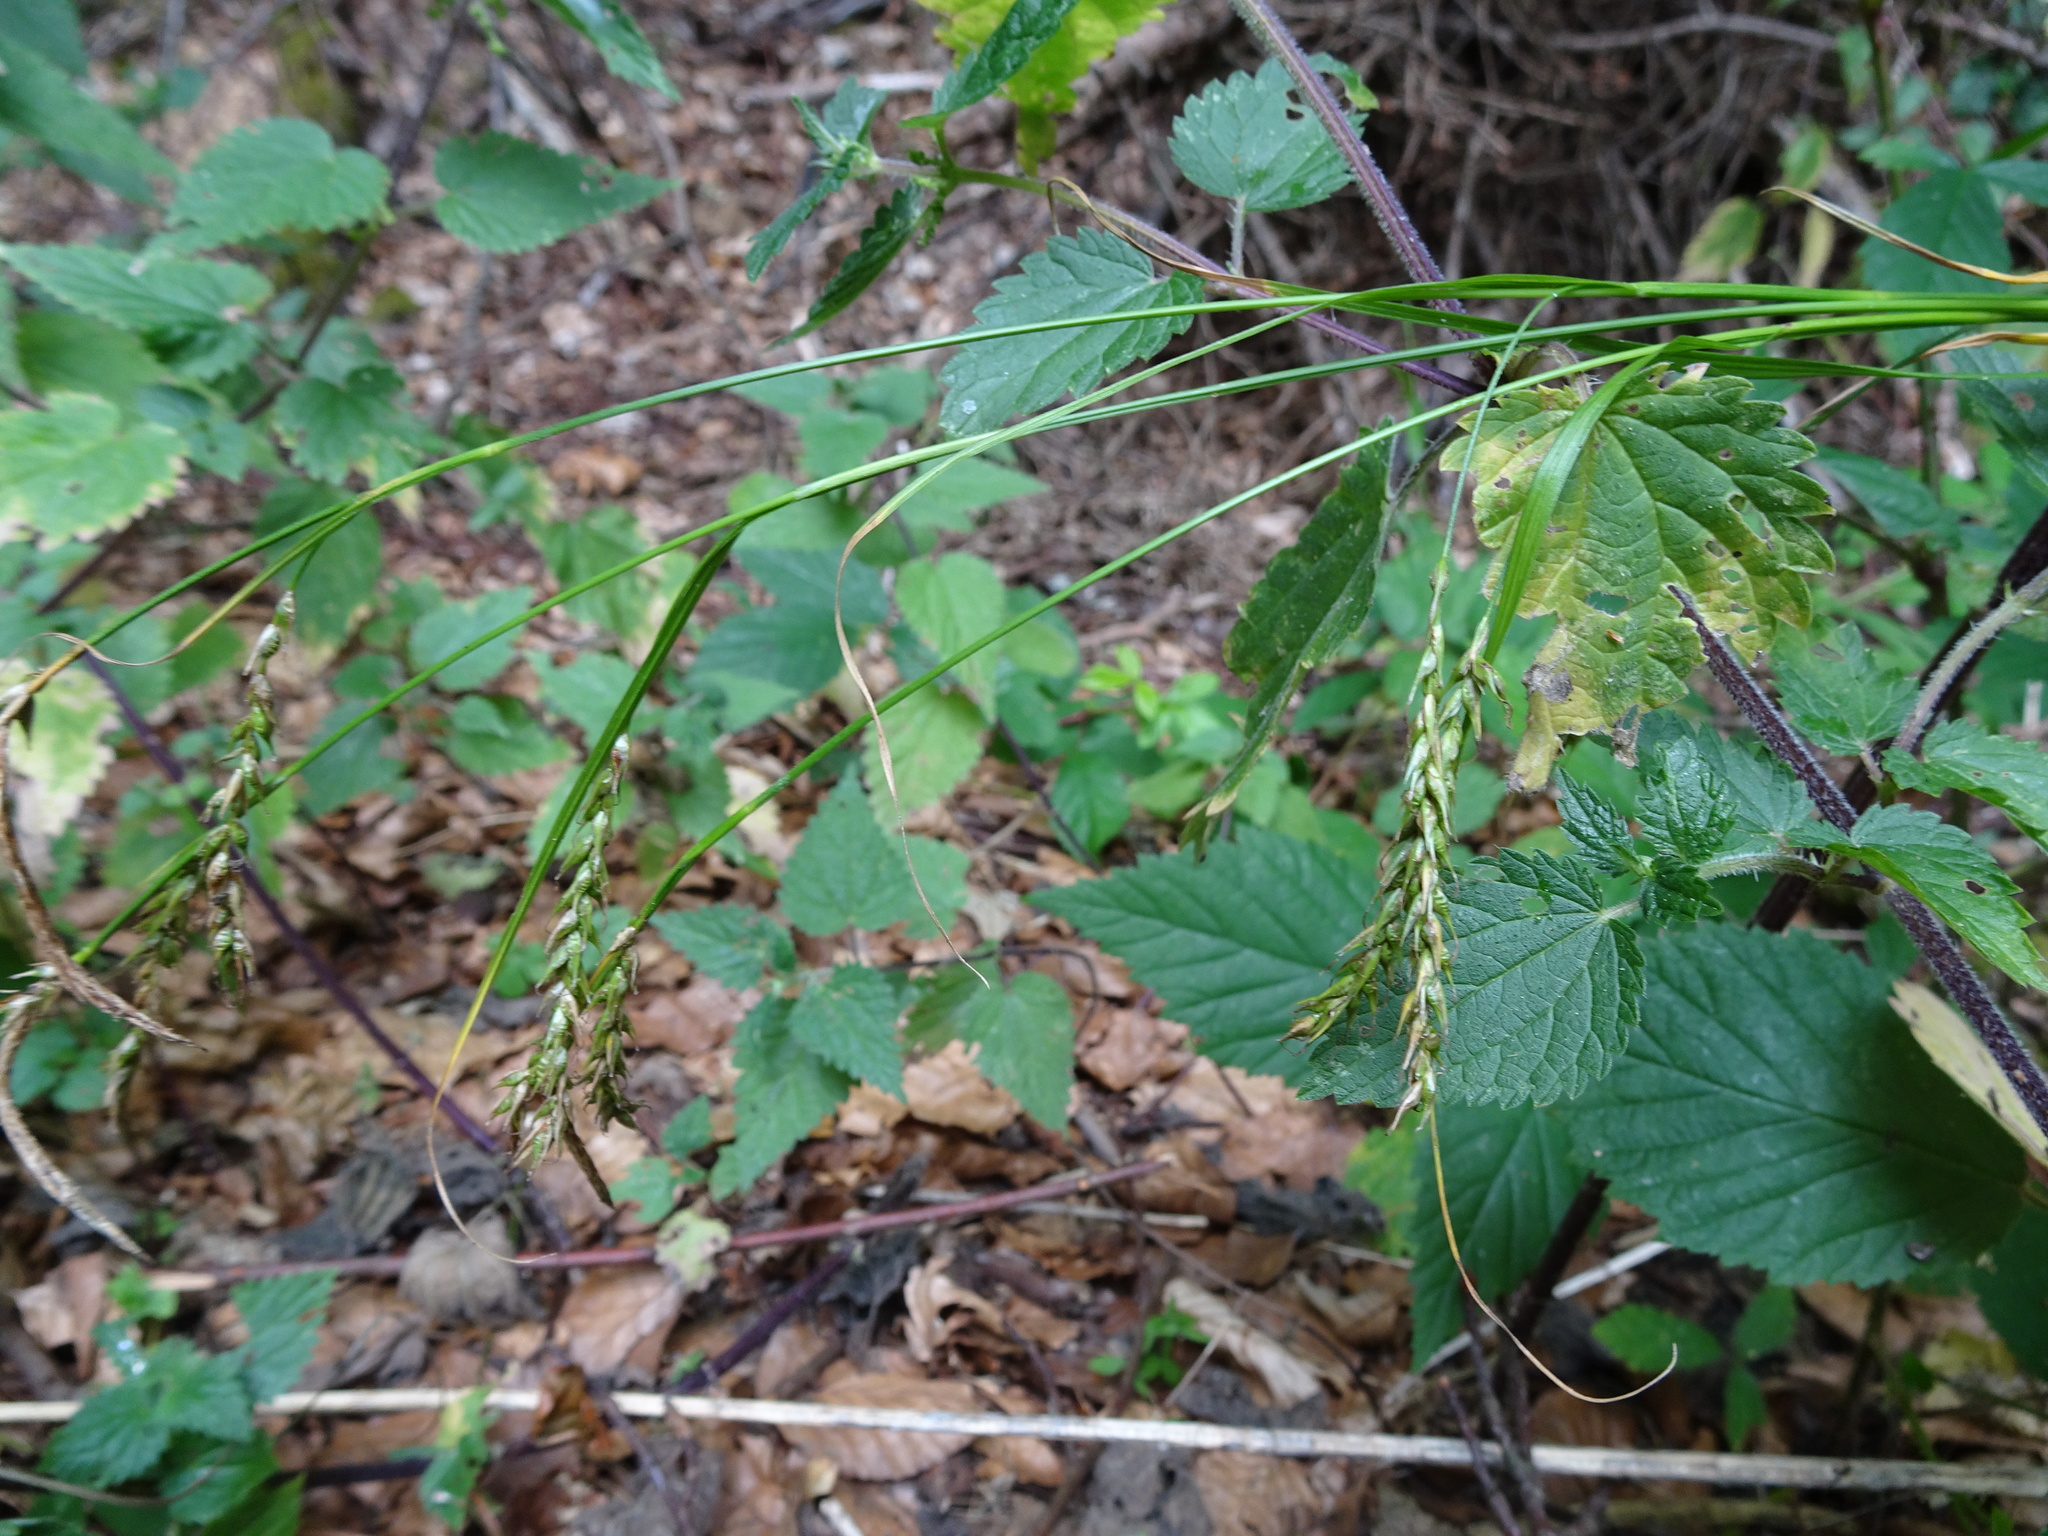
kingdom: Plantae
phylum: Tracheophyta
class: Liliopsida
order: Poales
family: Cyperaceae
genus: Carex
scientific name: Carex sylvatica
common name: Wood-sedge
